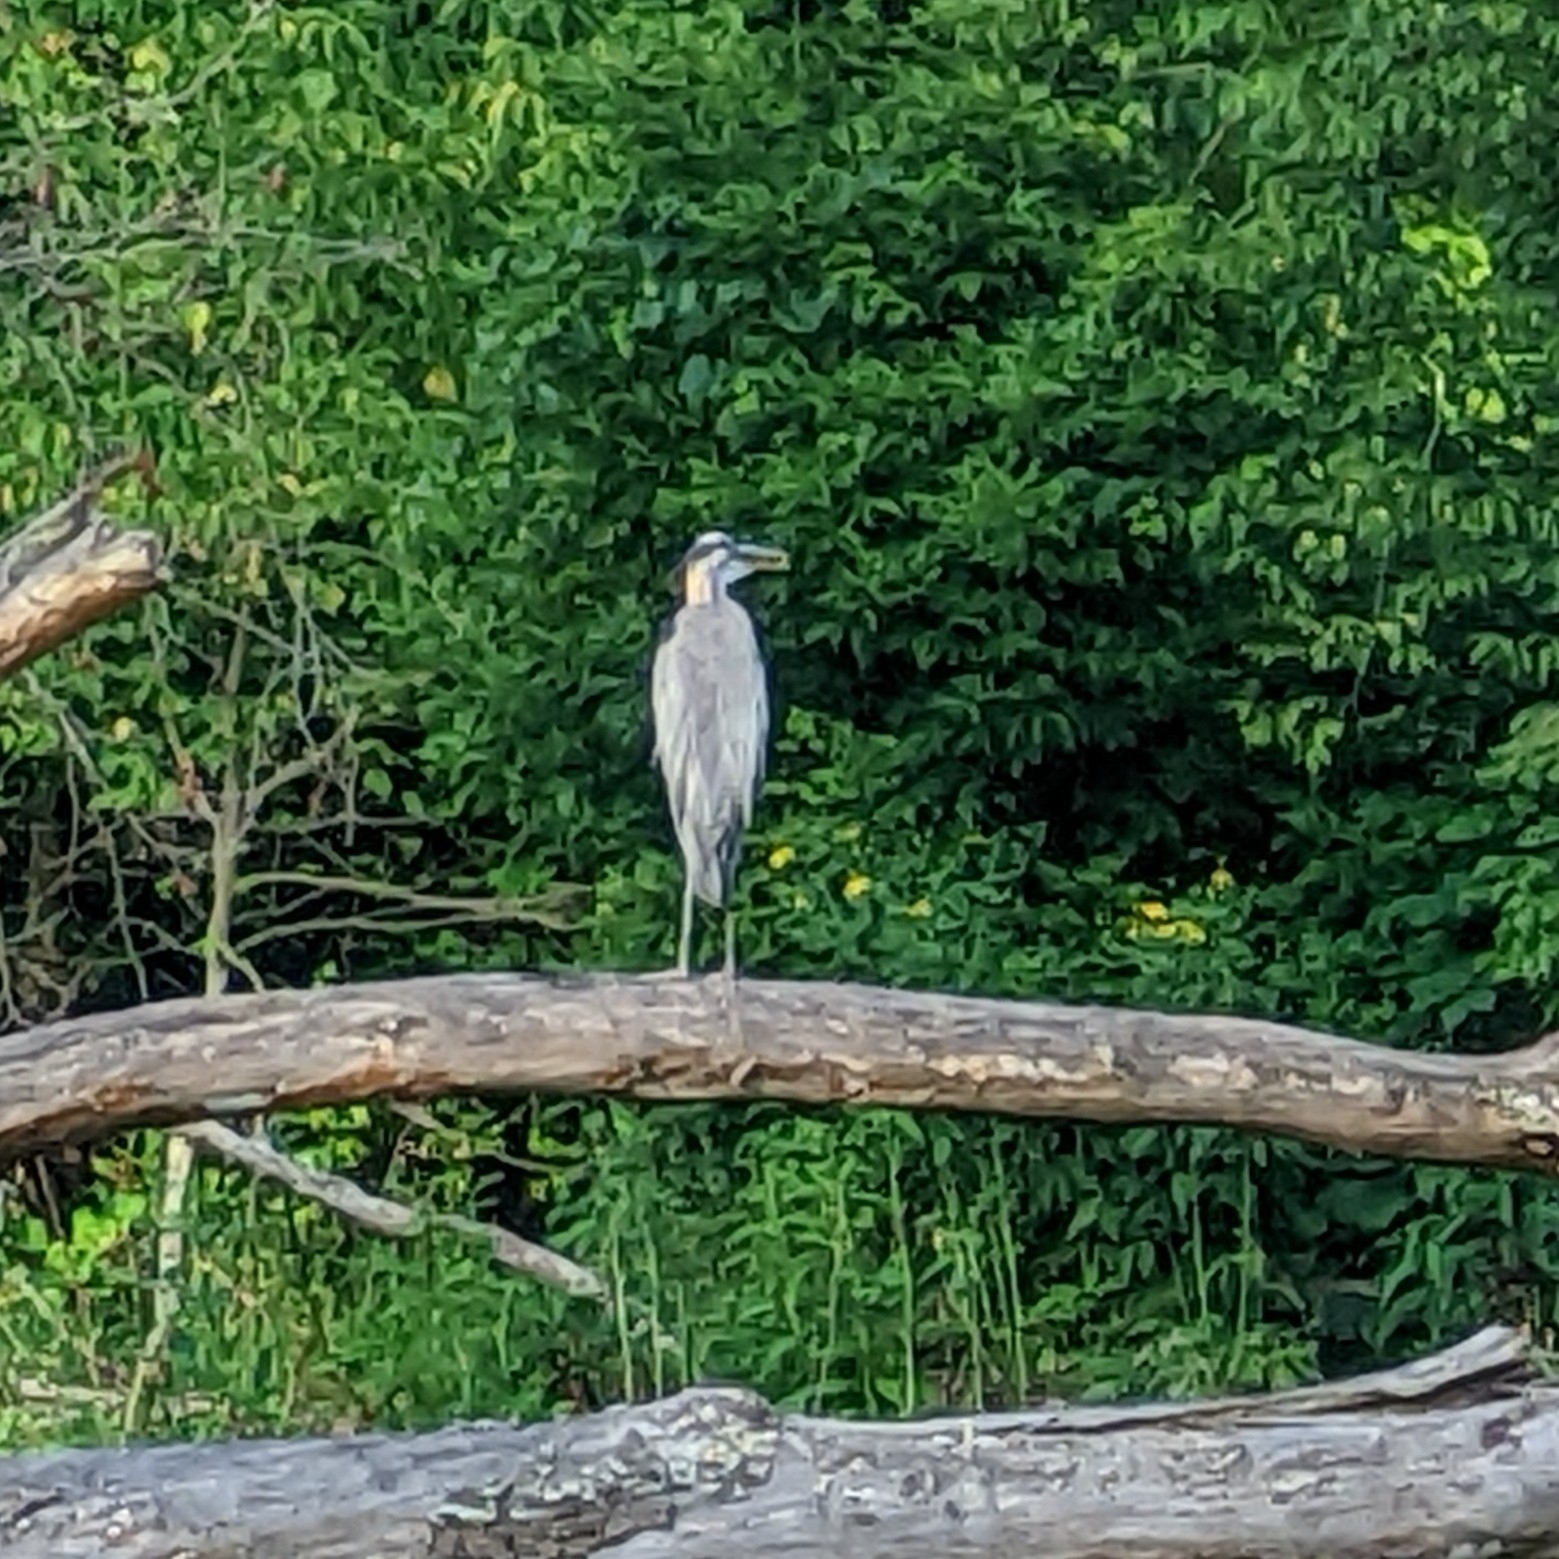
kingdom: Animalia
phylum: Chordata
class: Aves
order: Pelecaniformes
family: Ardeidae
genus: Ardea
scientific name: Ardea herodias
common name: Great blue heron
